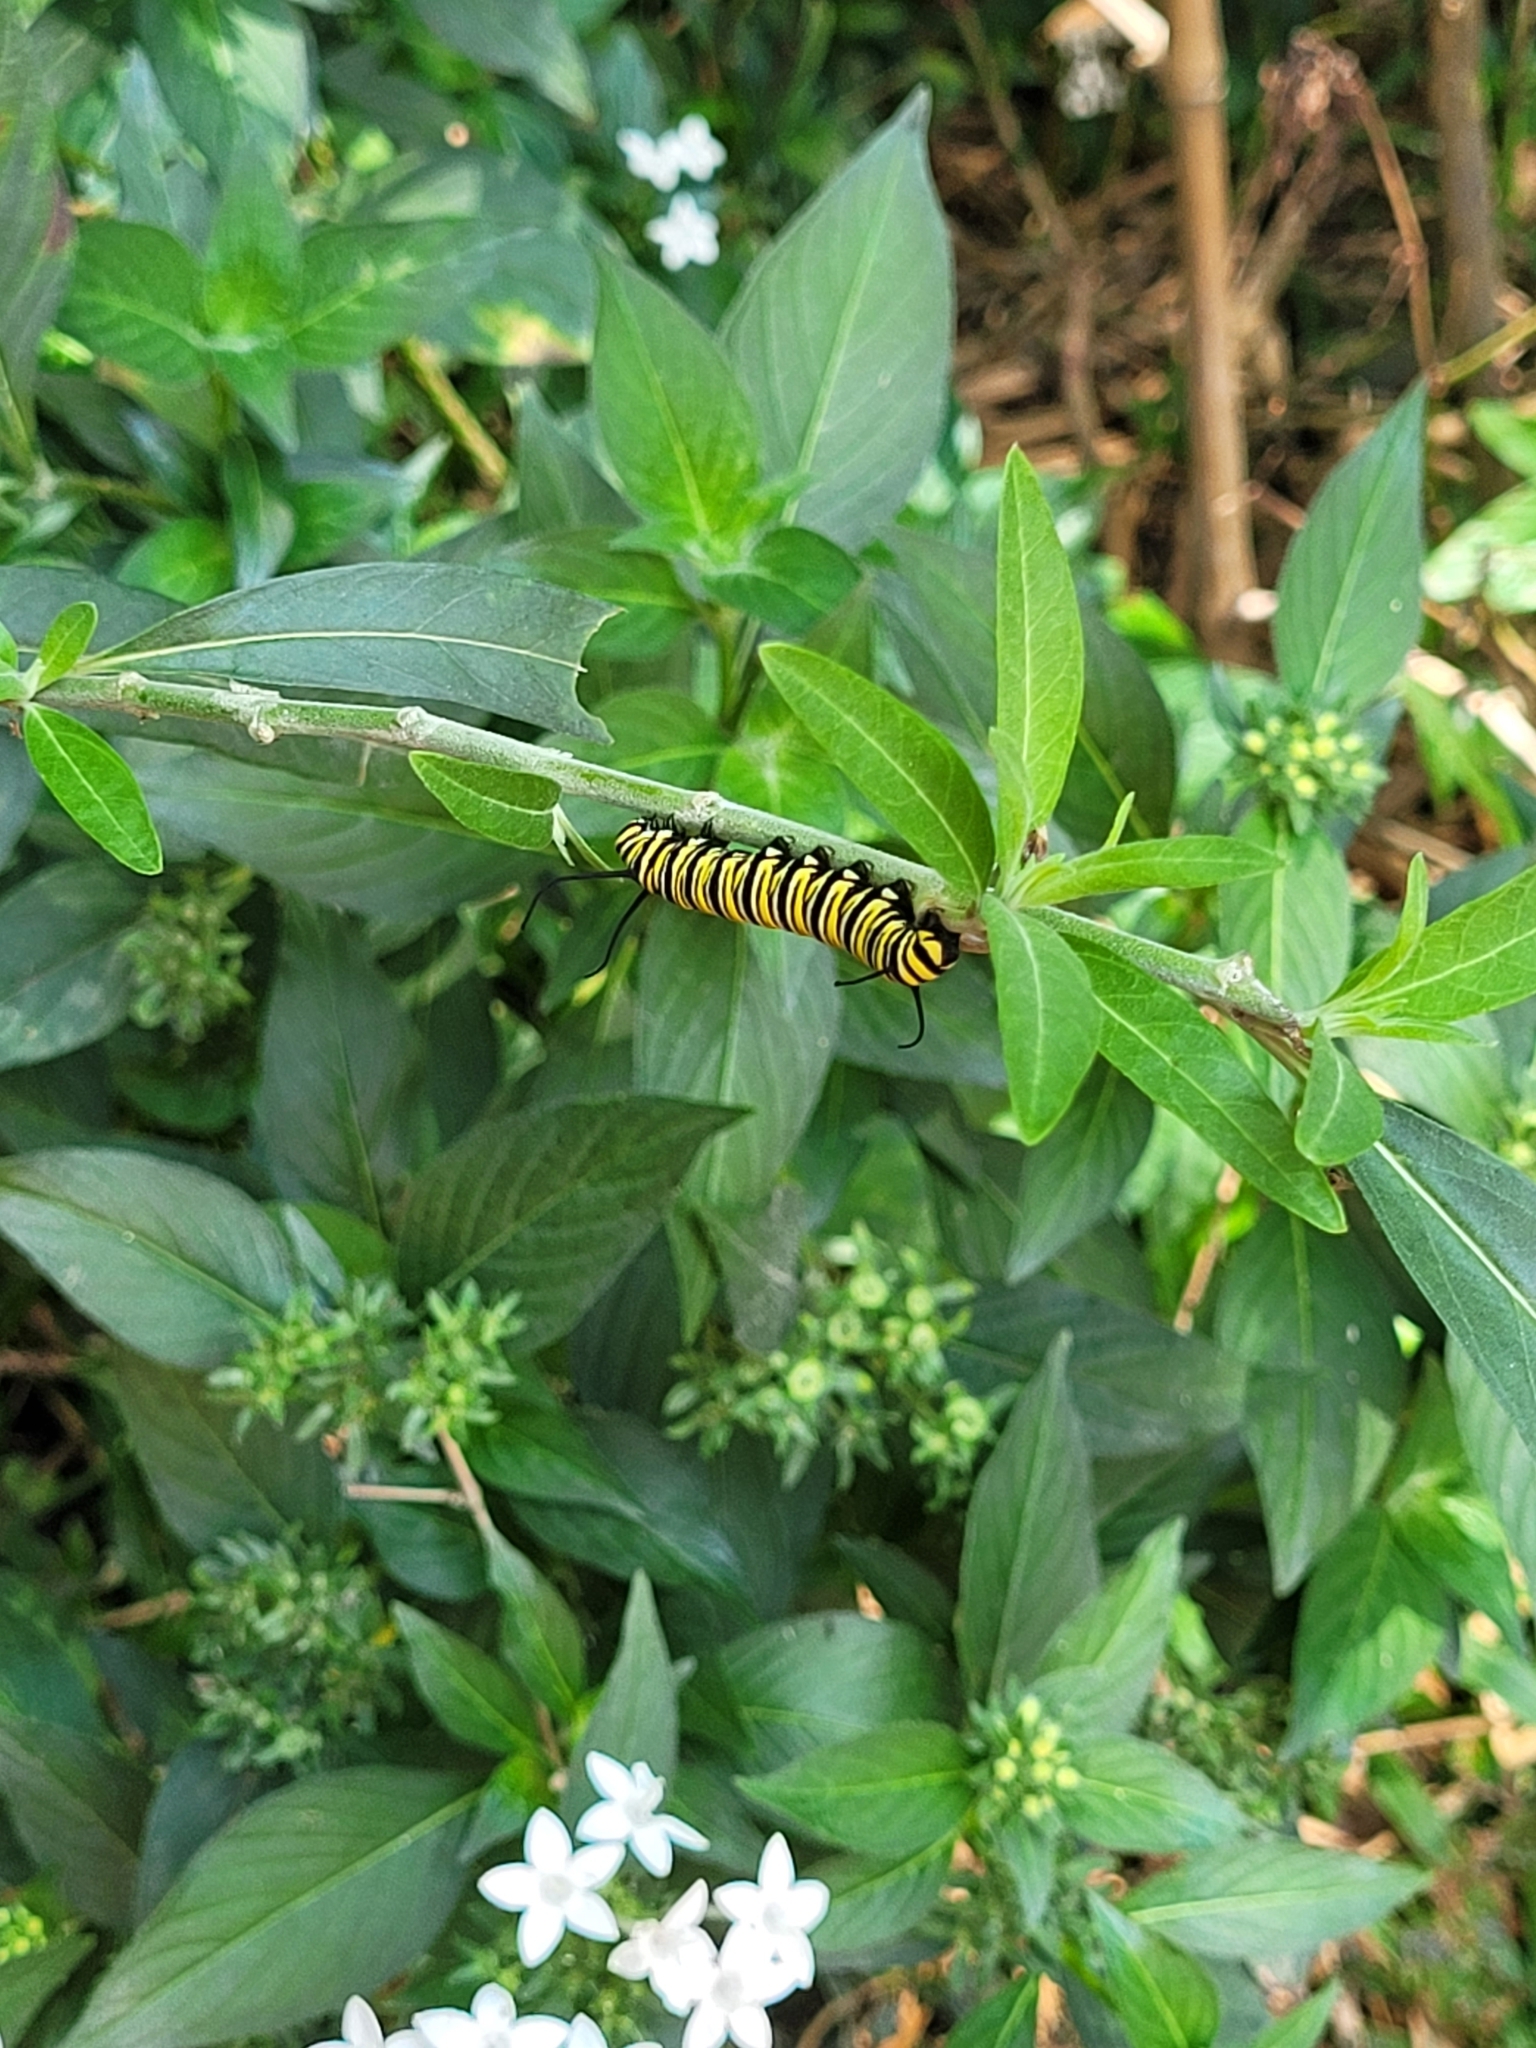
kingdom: Animalia
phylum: Arthropoda
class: Insecta
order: Lepidoptera
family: Nymphalidae
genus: Danaus
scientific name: Danaus plexippus
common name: Monarch
